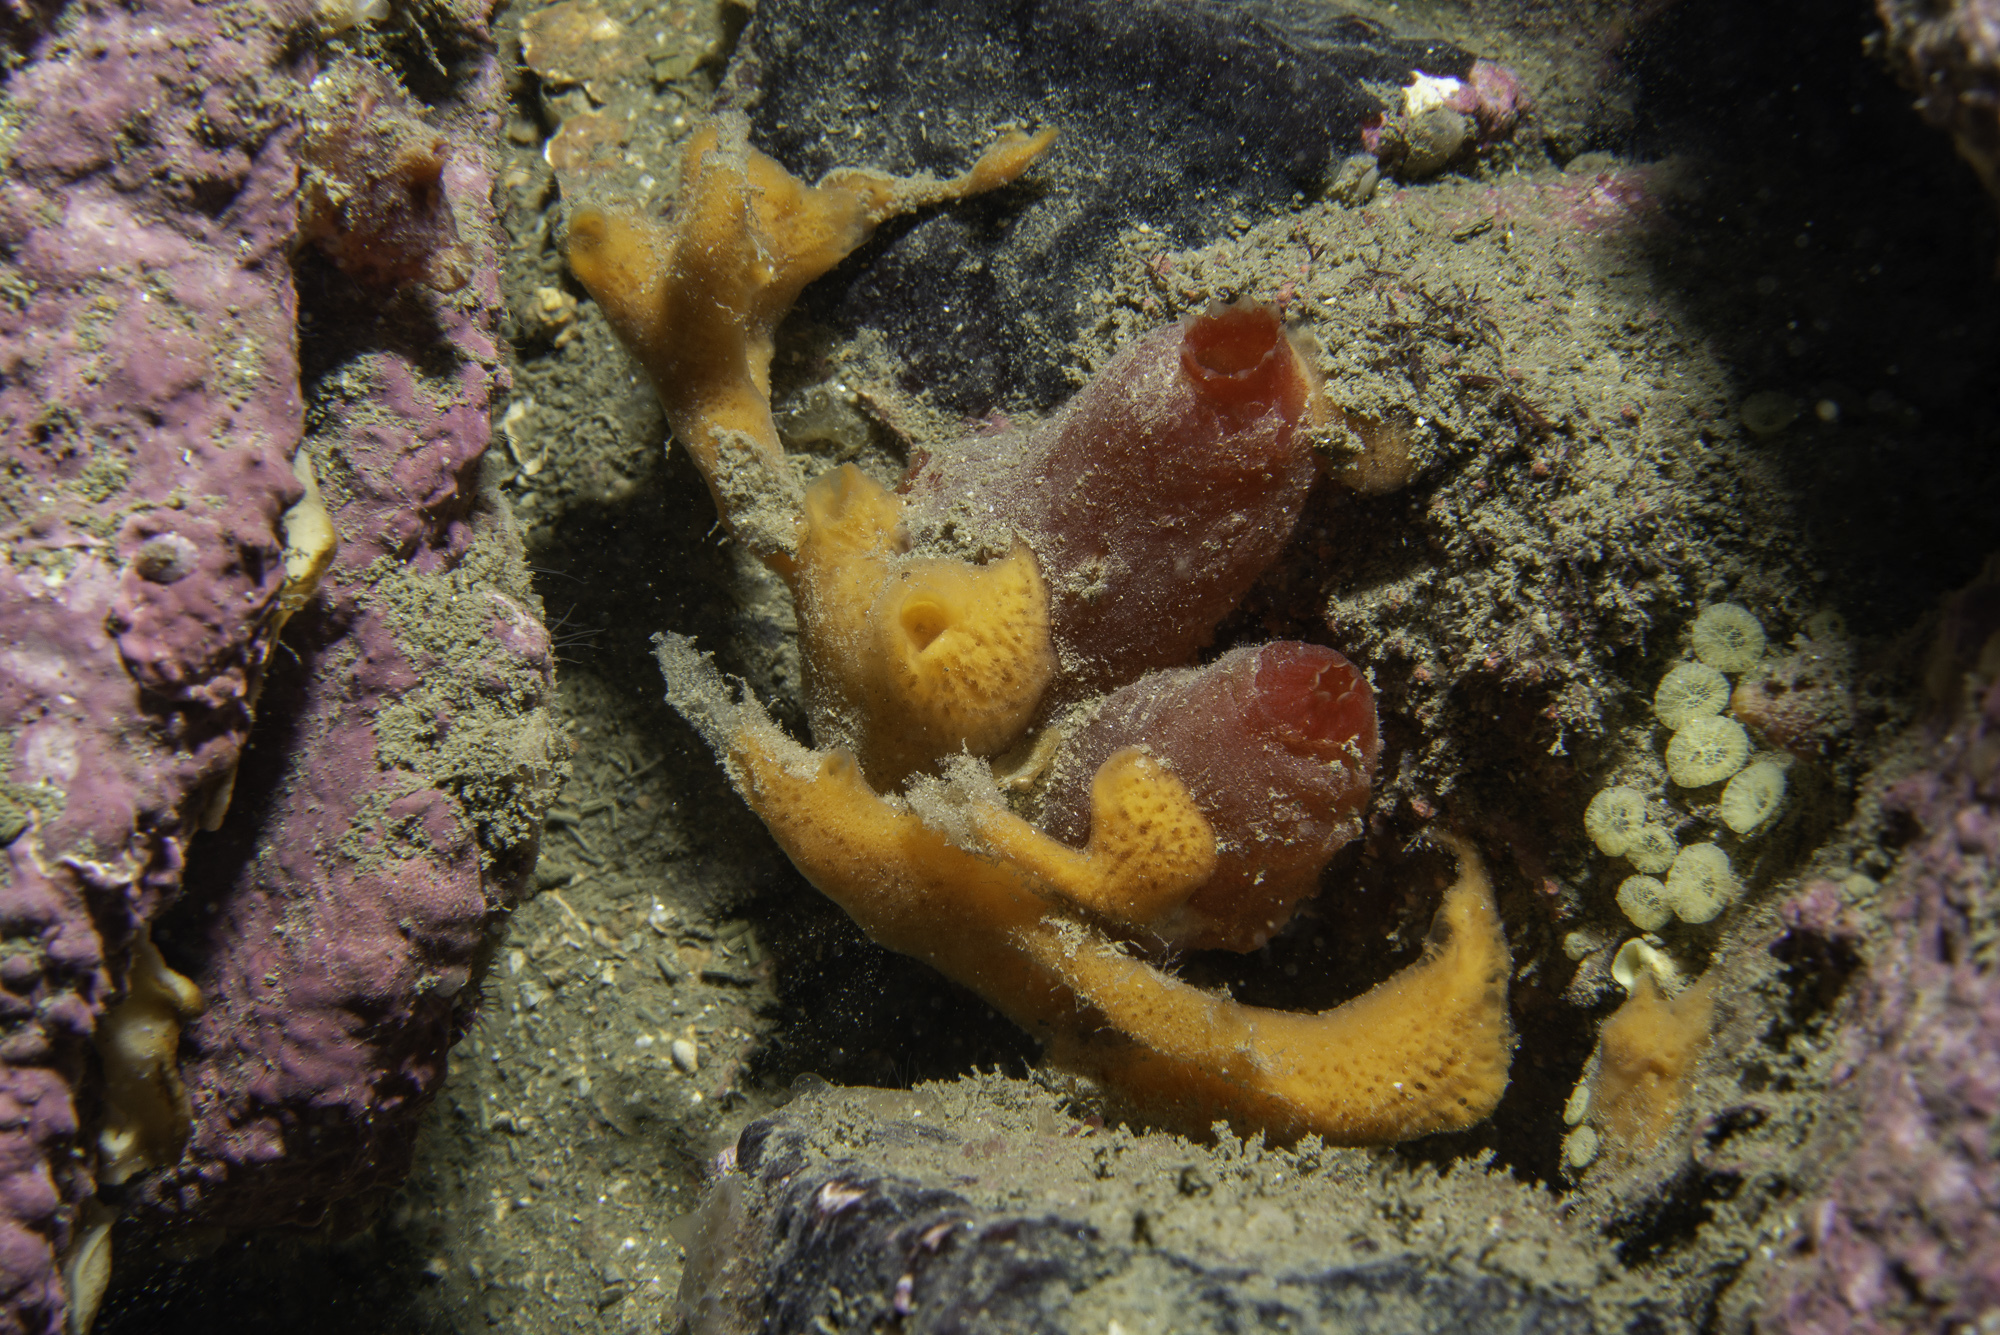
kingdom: Animalia
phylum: Porifera
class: Demospongiae
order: Poecilosclerida
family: Esperiopsidae
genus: Amphilectus
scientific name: Amphilectus fucorum
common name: Carrot-sponge
